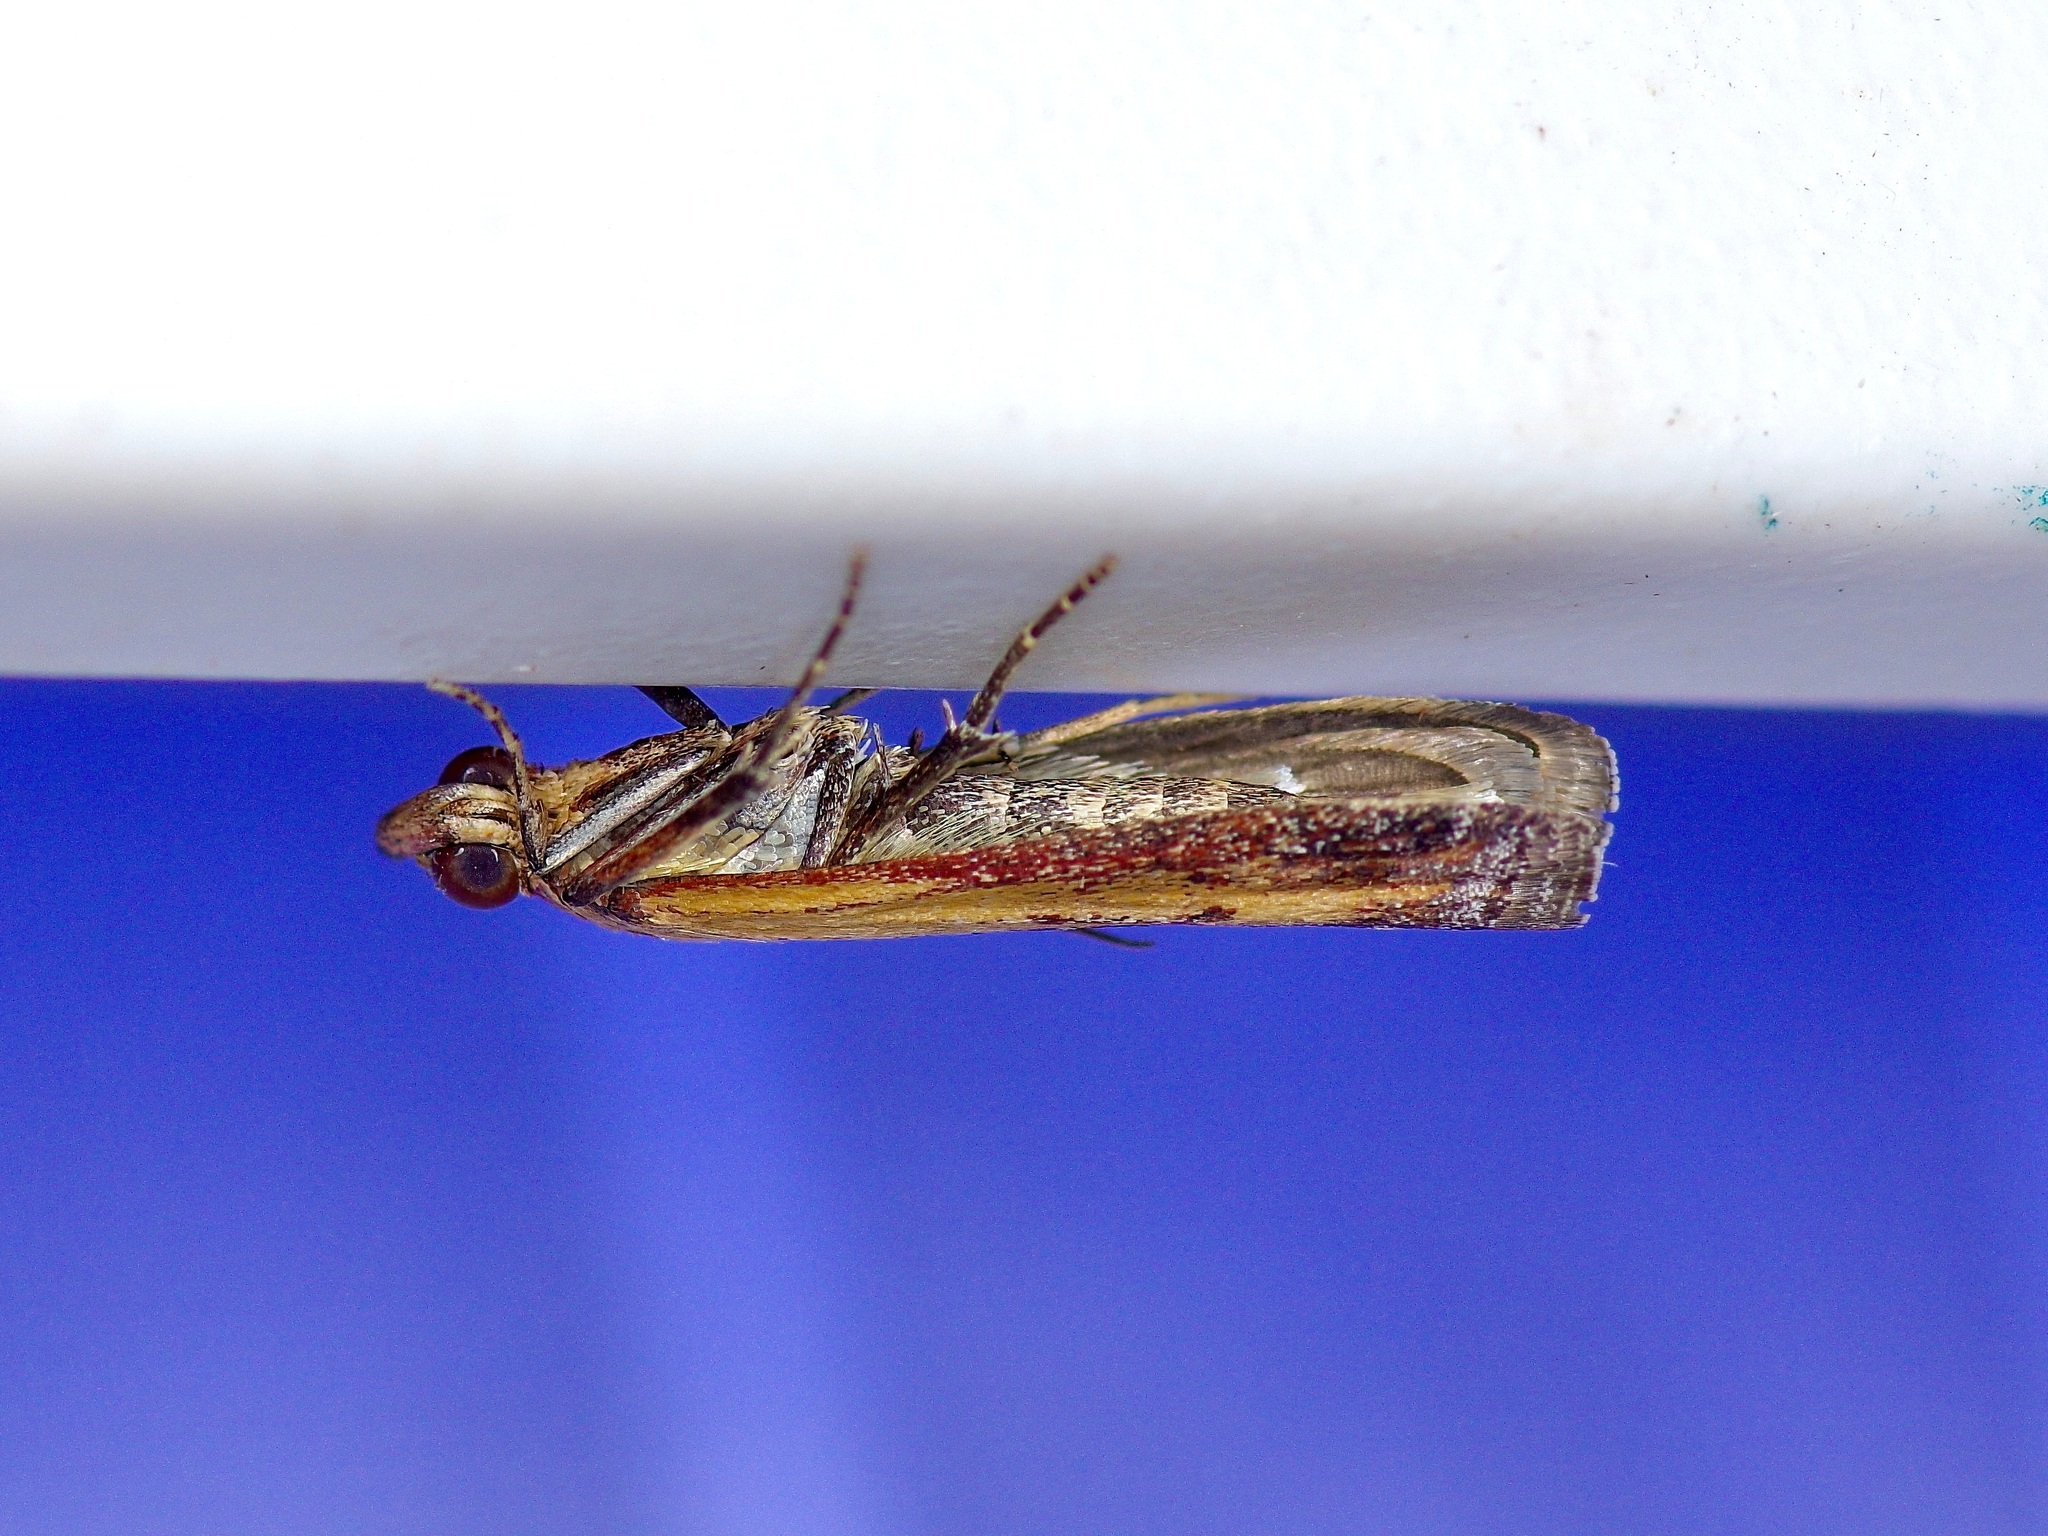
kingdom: Animalia
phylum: Arthropoda
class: Insecta
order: Lepidoptera
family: Pyralidae
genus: Elasmopalpus
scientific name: Elasmopalpus lignosella
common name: Lesser cornstalk borer
